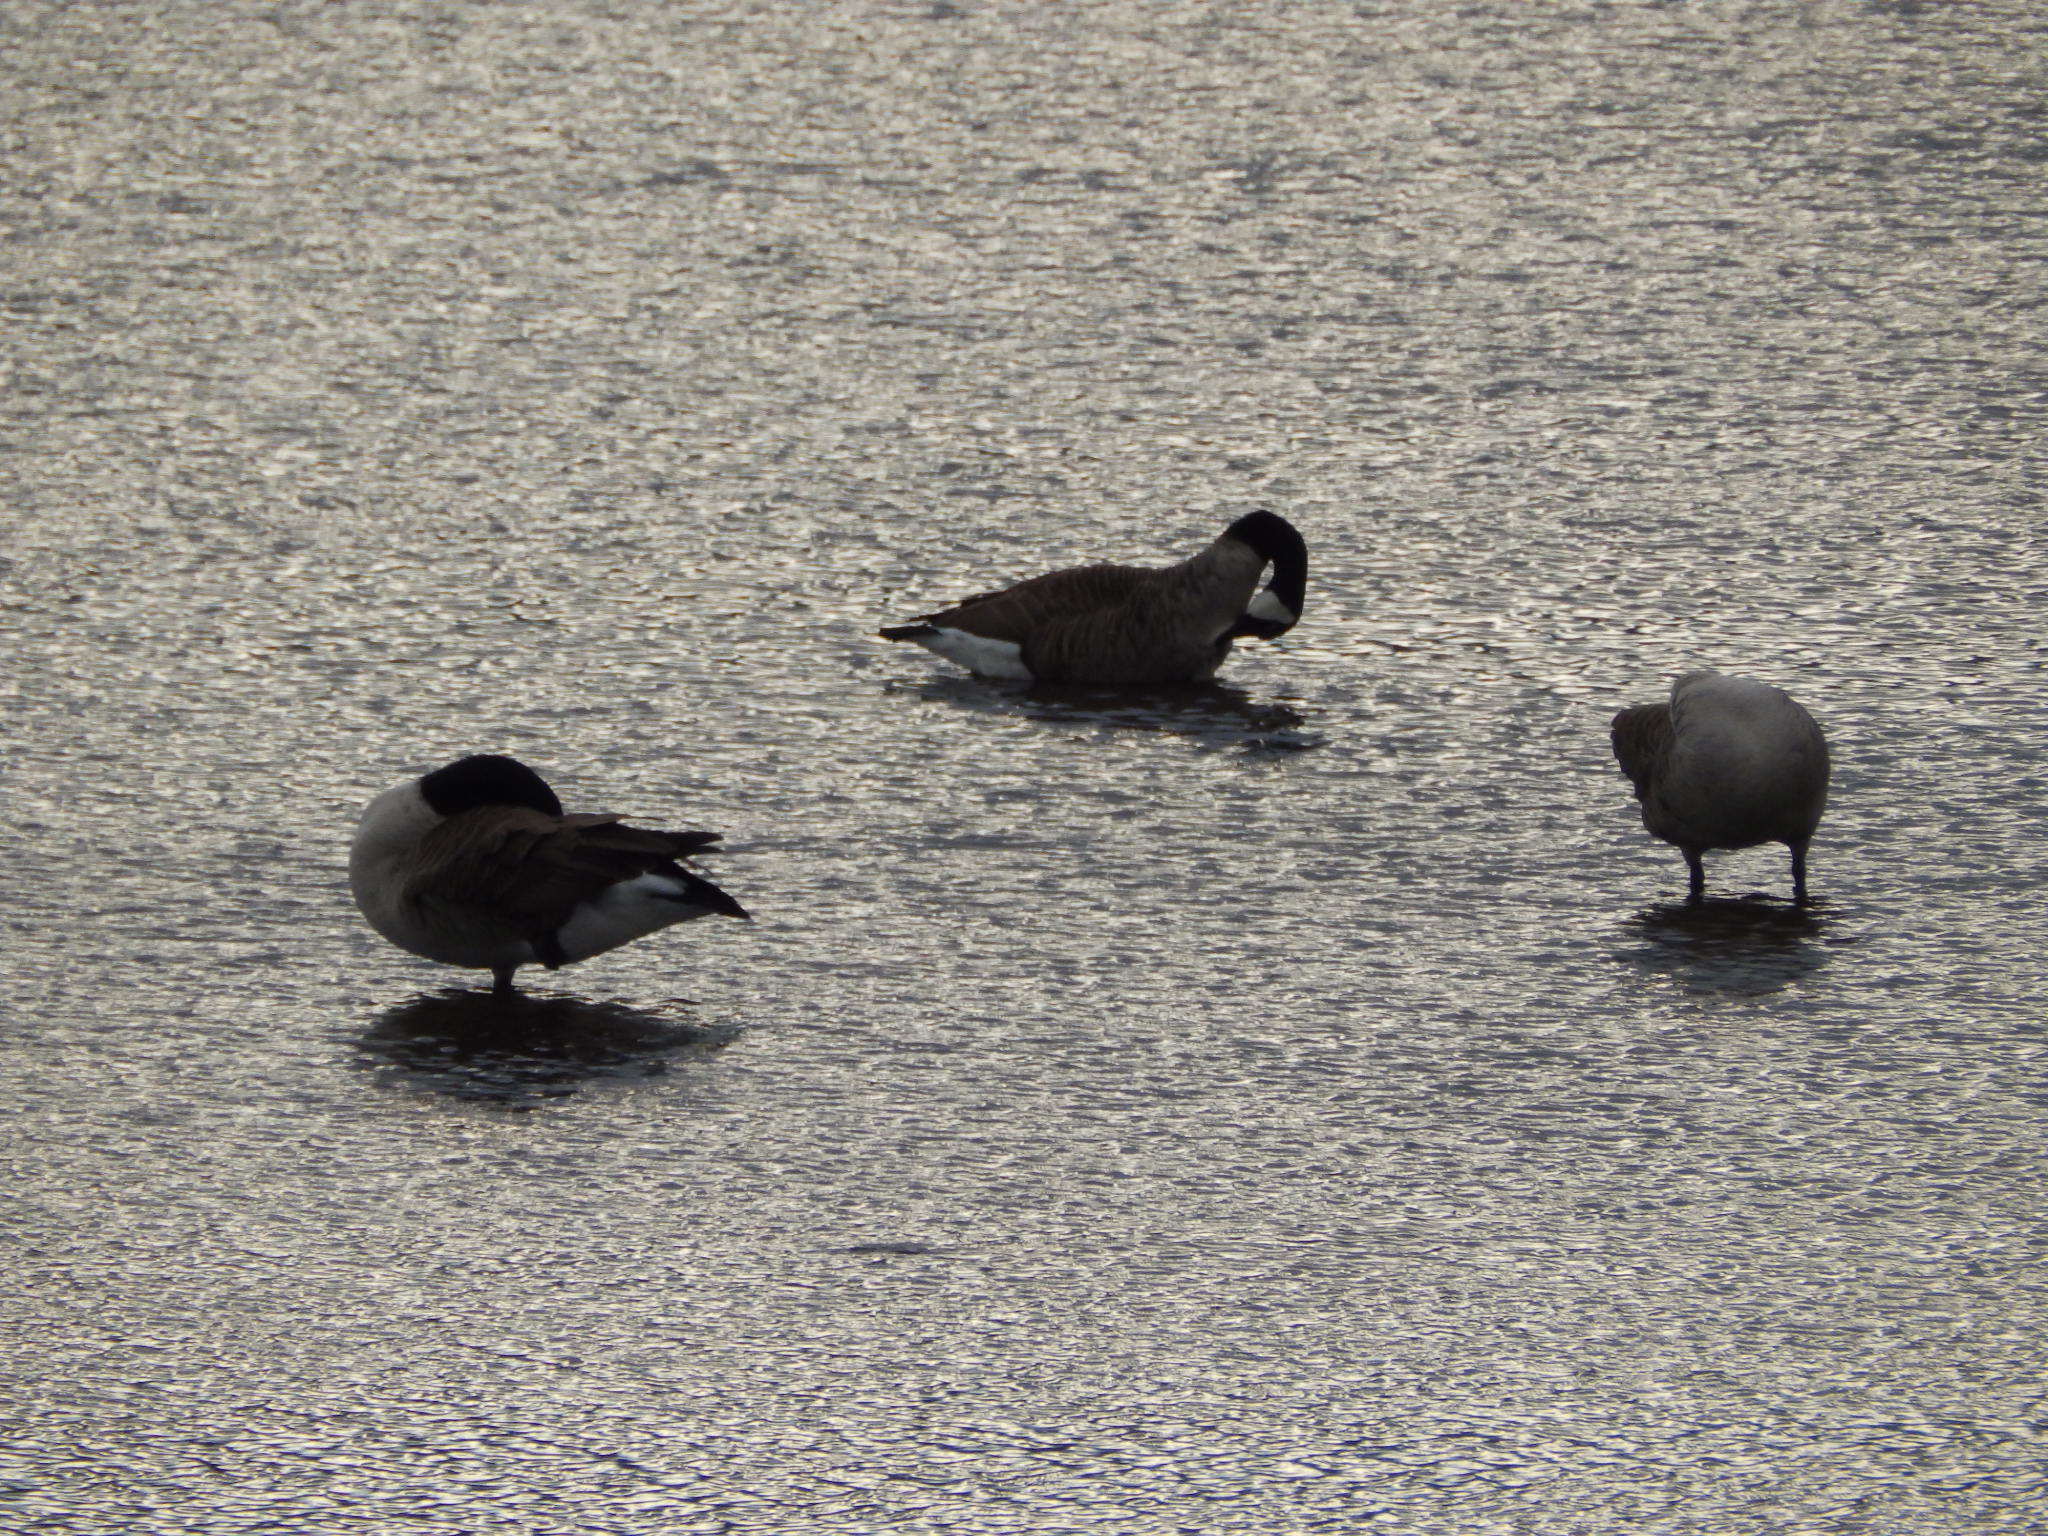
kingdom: Animalia
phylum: Chordata
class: Aves
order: Anseriformes
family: Anatidae
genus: Branta
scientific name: Branta canadensis
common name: Canada goose
